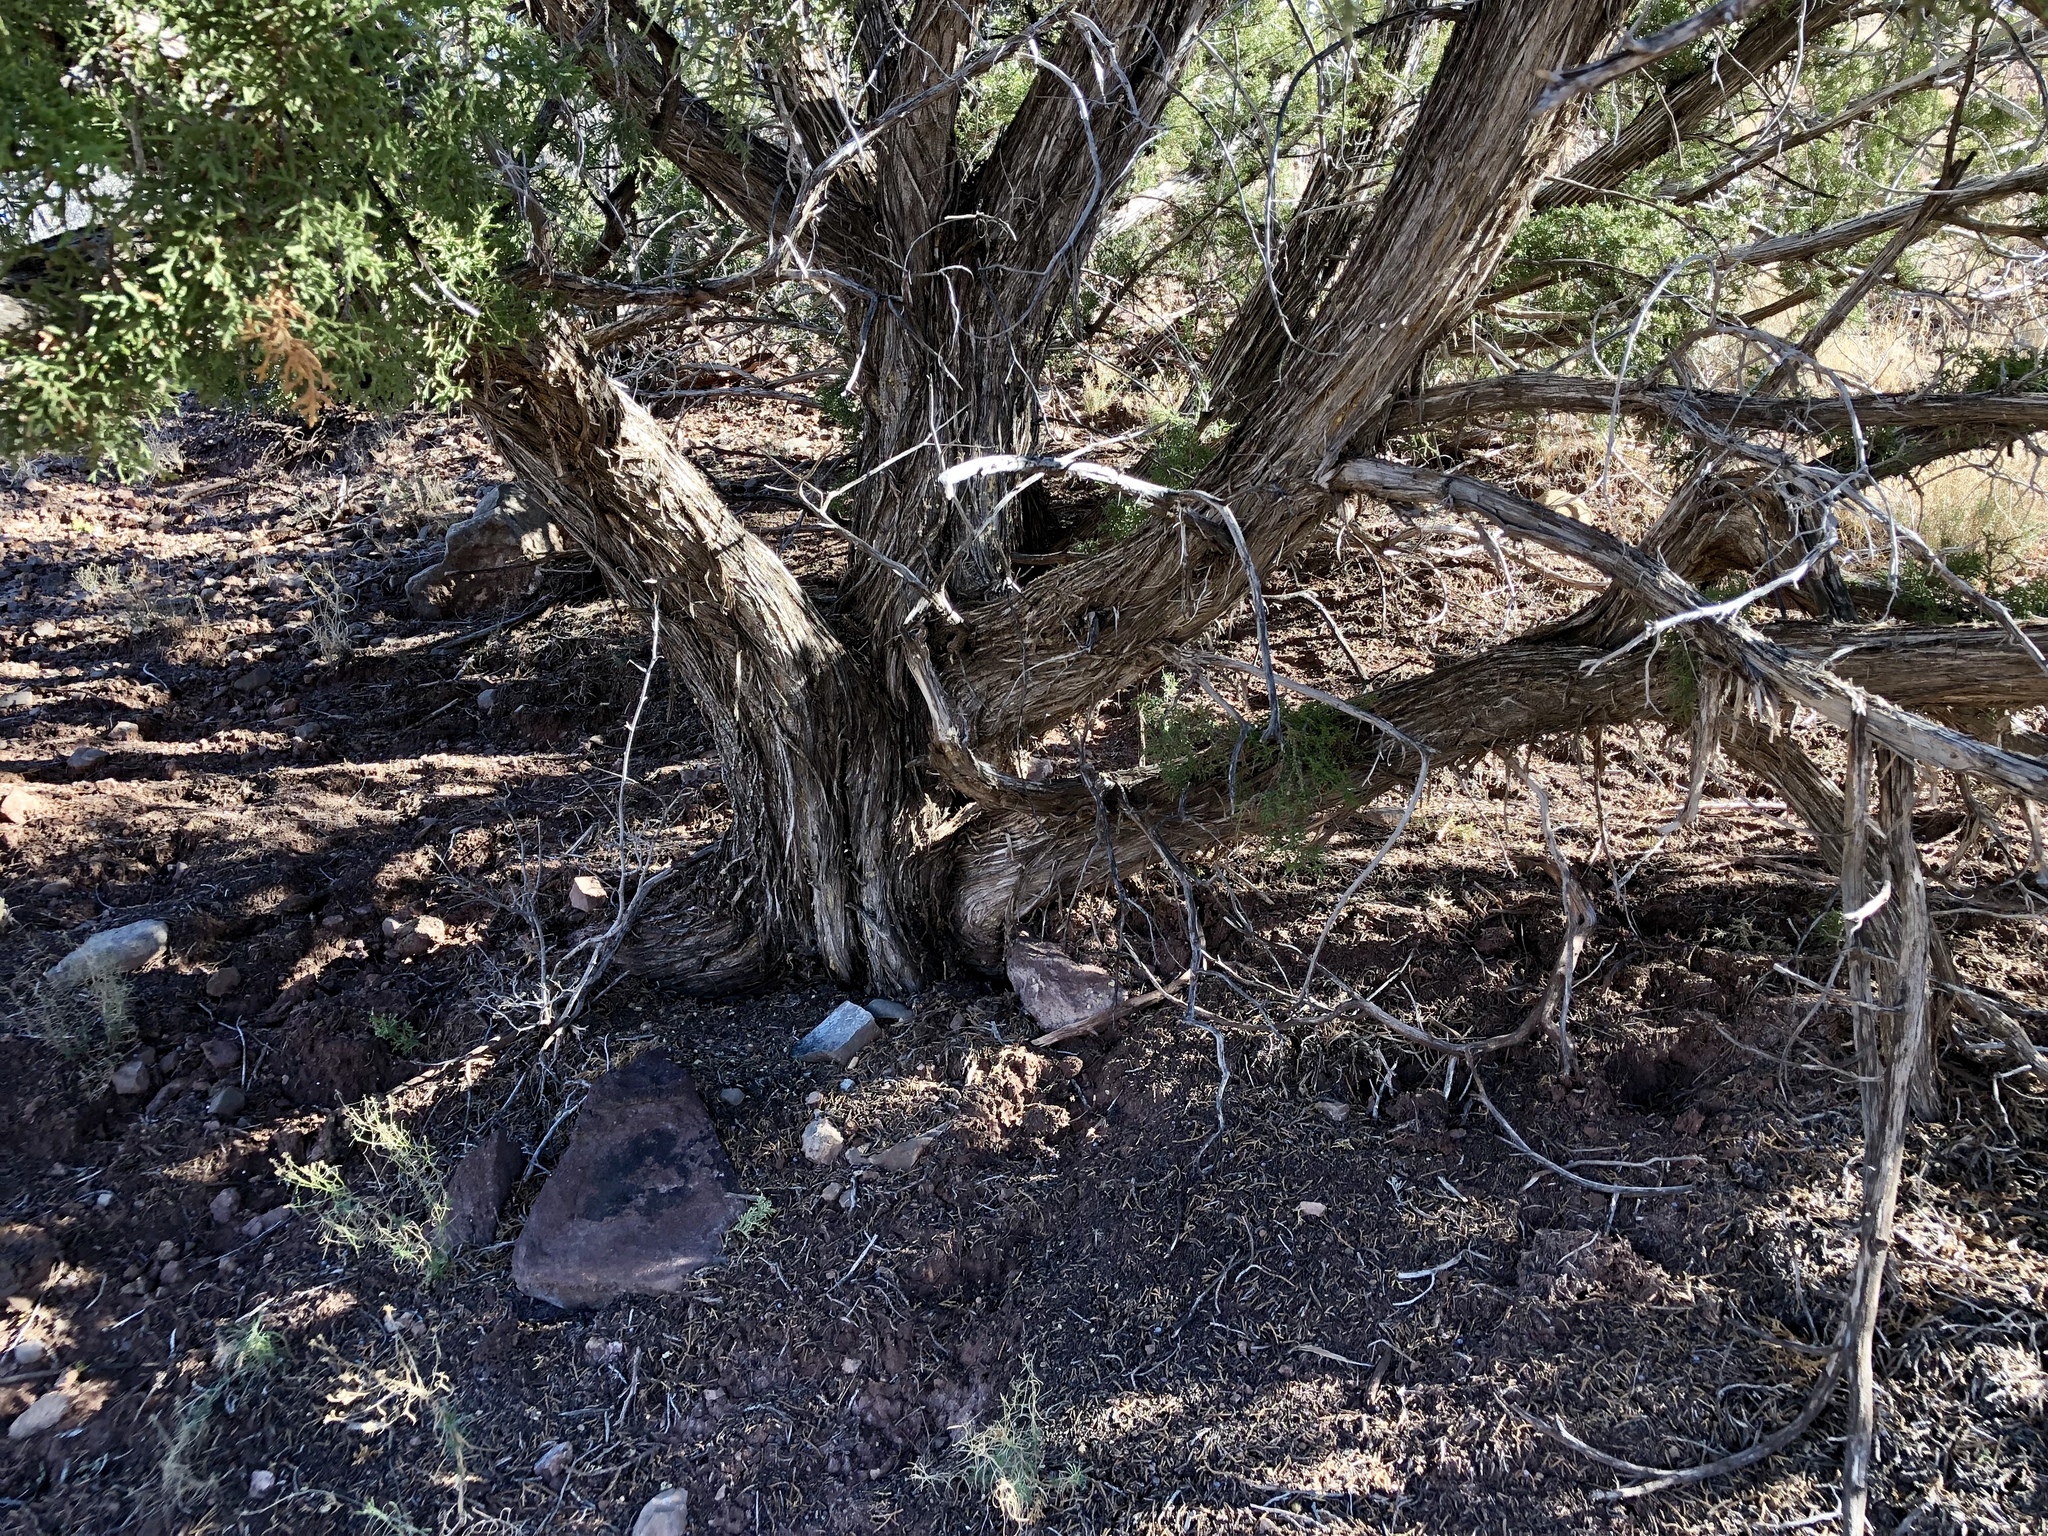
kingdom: Plantae
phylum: Tracheophyta
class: Pinopsida
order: Pinales
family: Cupressaceae
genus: Juniperus
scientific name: Juniperus monosperma
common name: One-seed juniper
